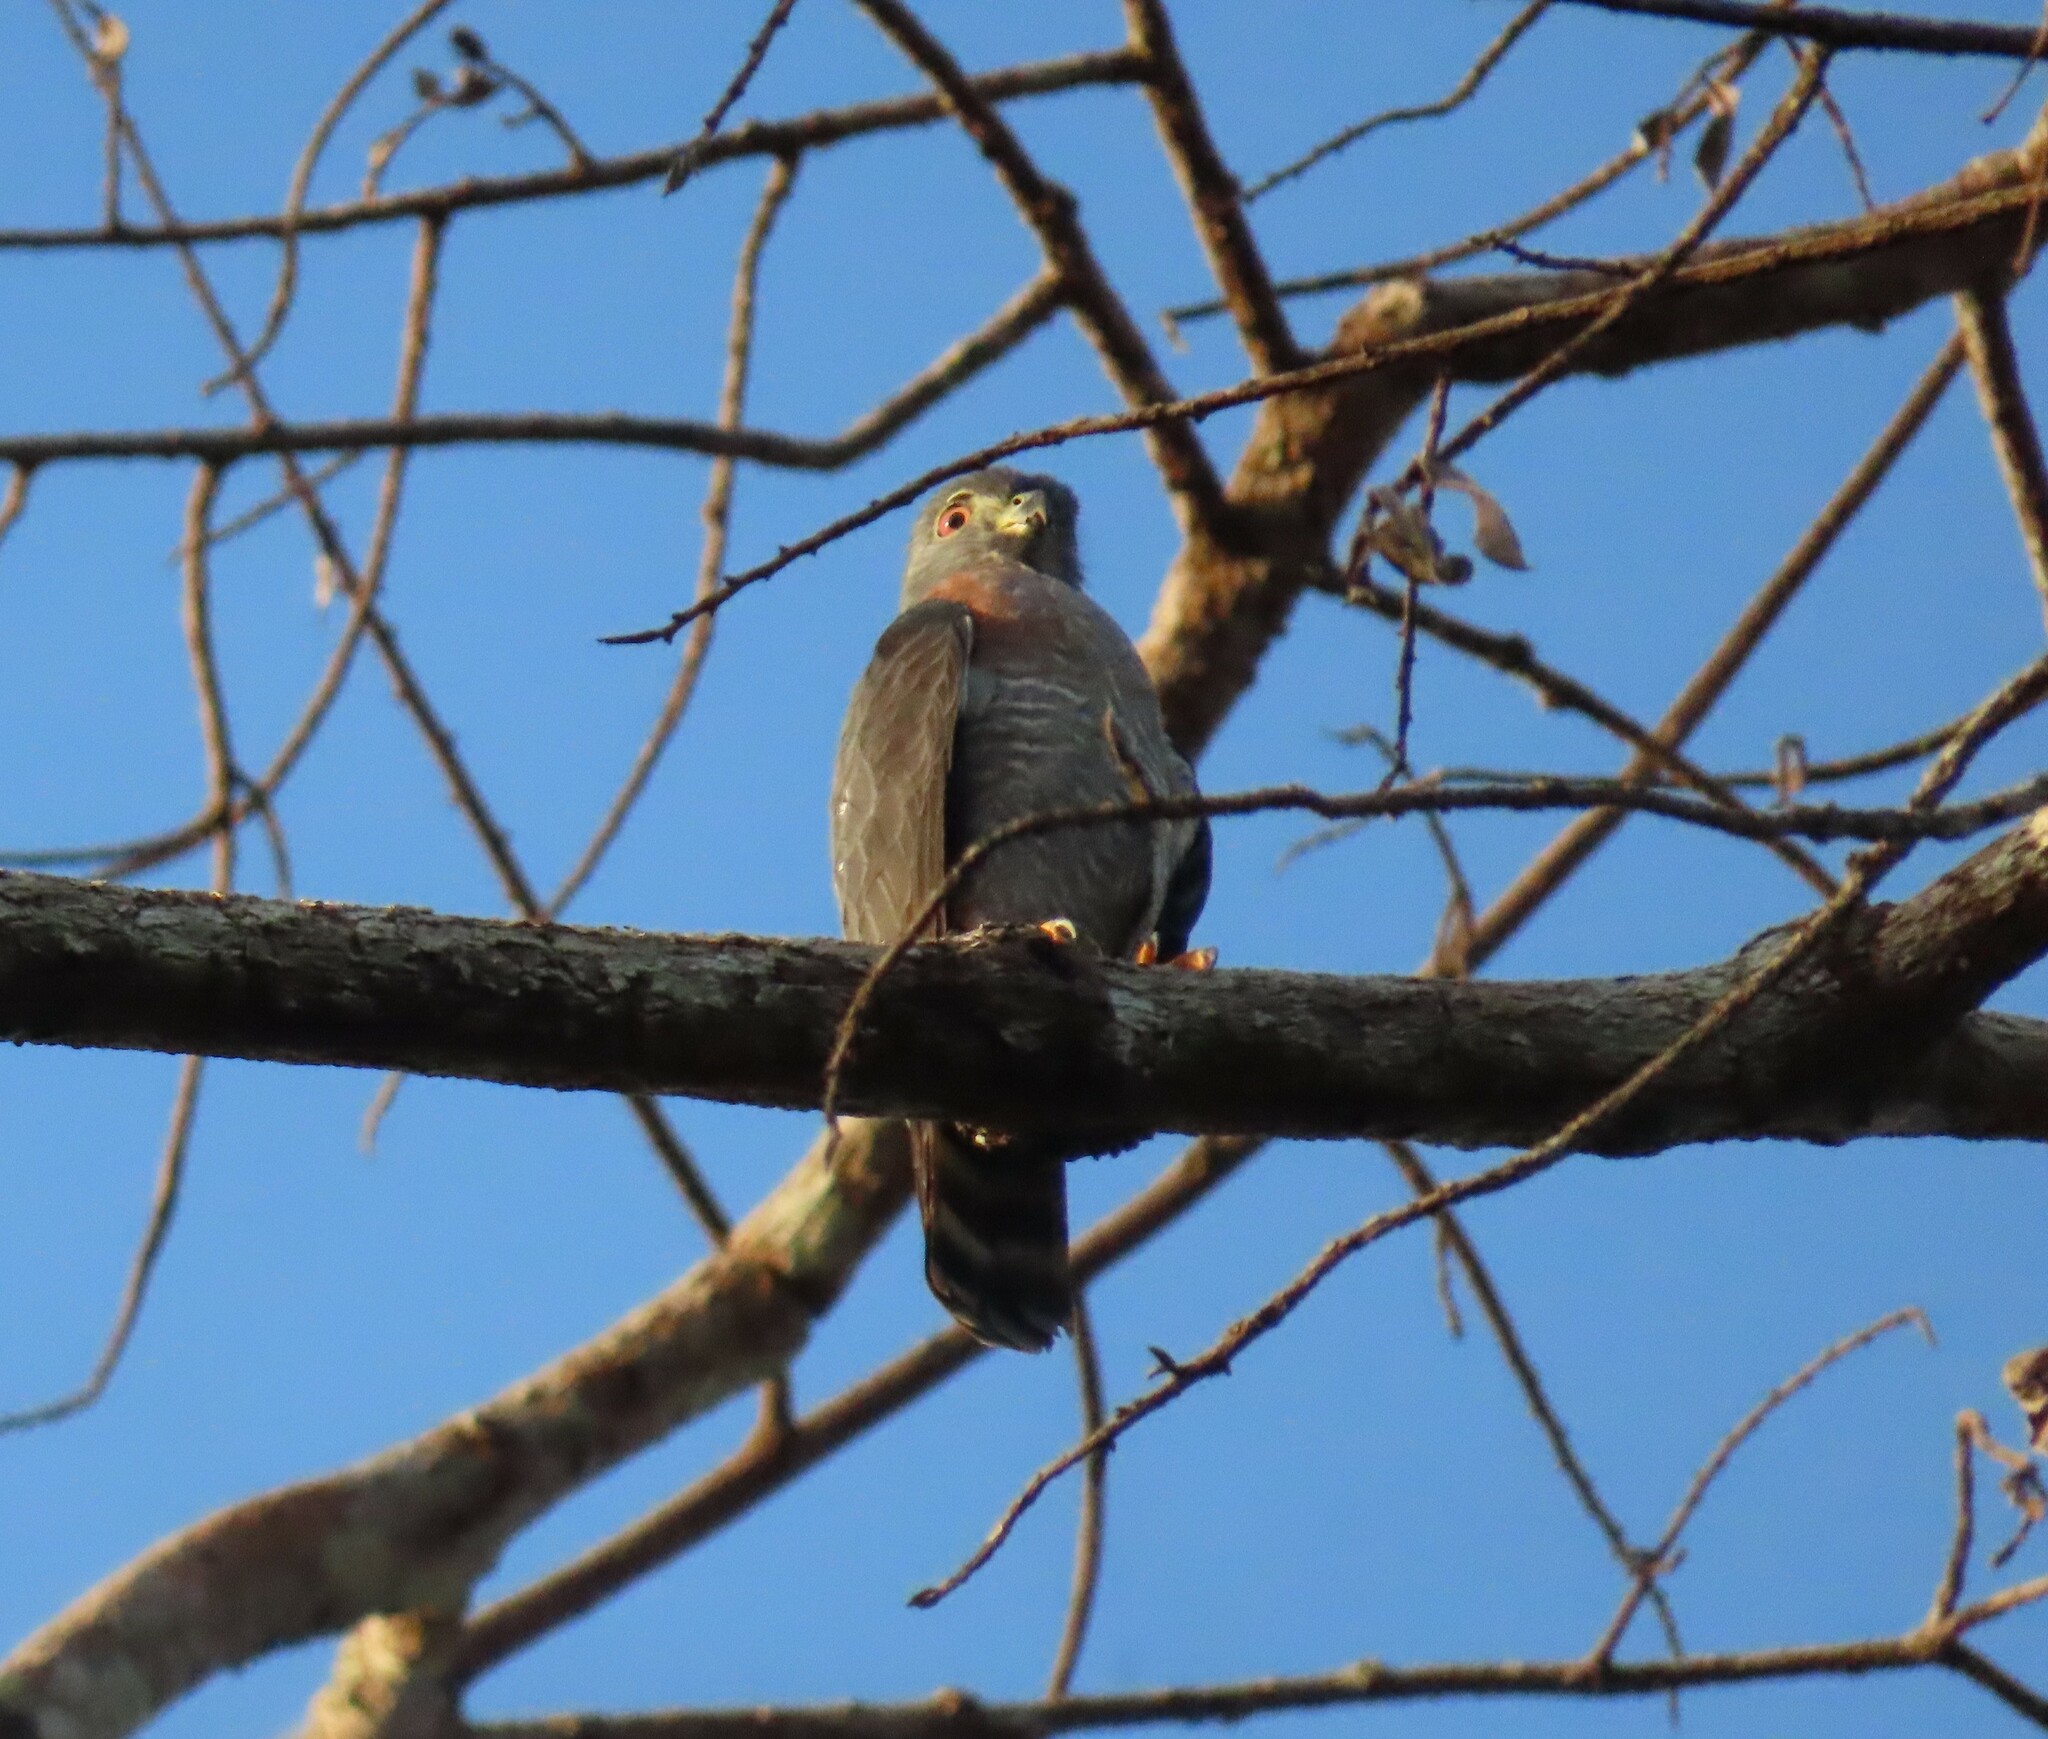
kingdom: Animalia
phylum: Chordata
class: Aves
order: Accipitriformes
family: Accipitridae
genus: Harpagus
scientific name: Harpagus bidentatus
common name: Double-toothed kite
